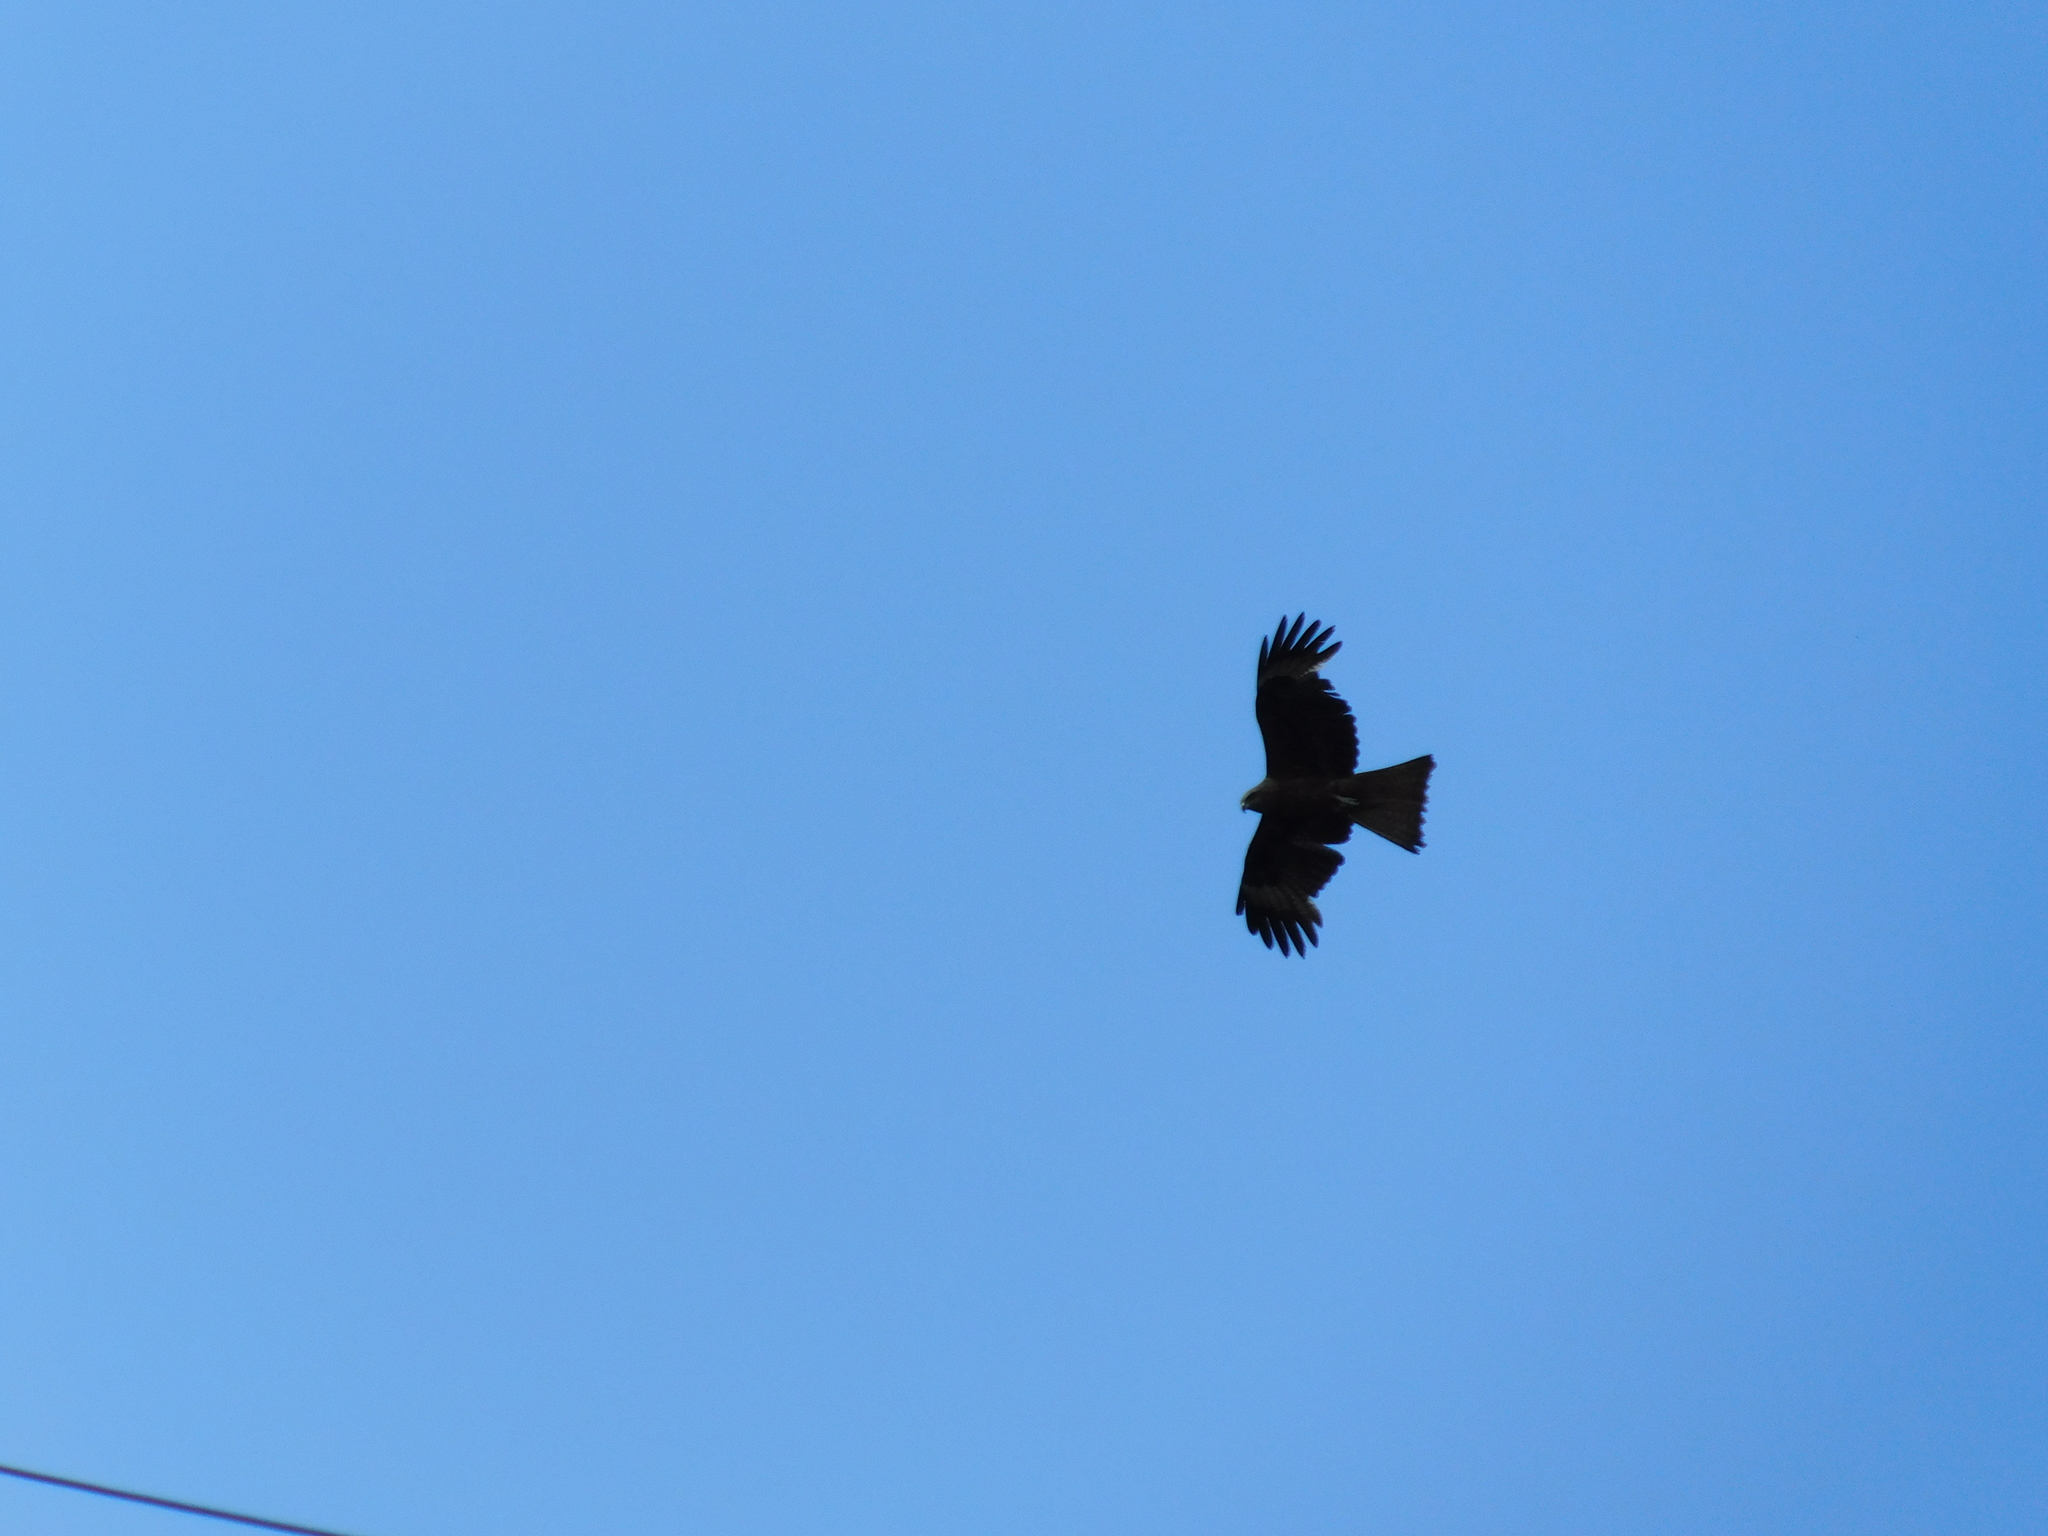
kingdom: Animalia
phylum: Chordata
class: Aves
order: Accipitriformes
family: Accipitridae
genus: Milvus
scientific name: Milvus migrans
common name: Black kite
